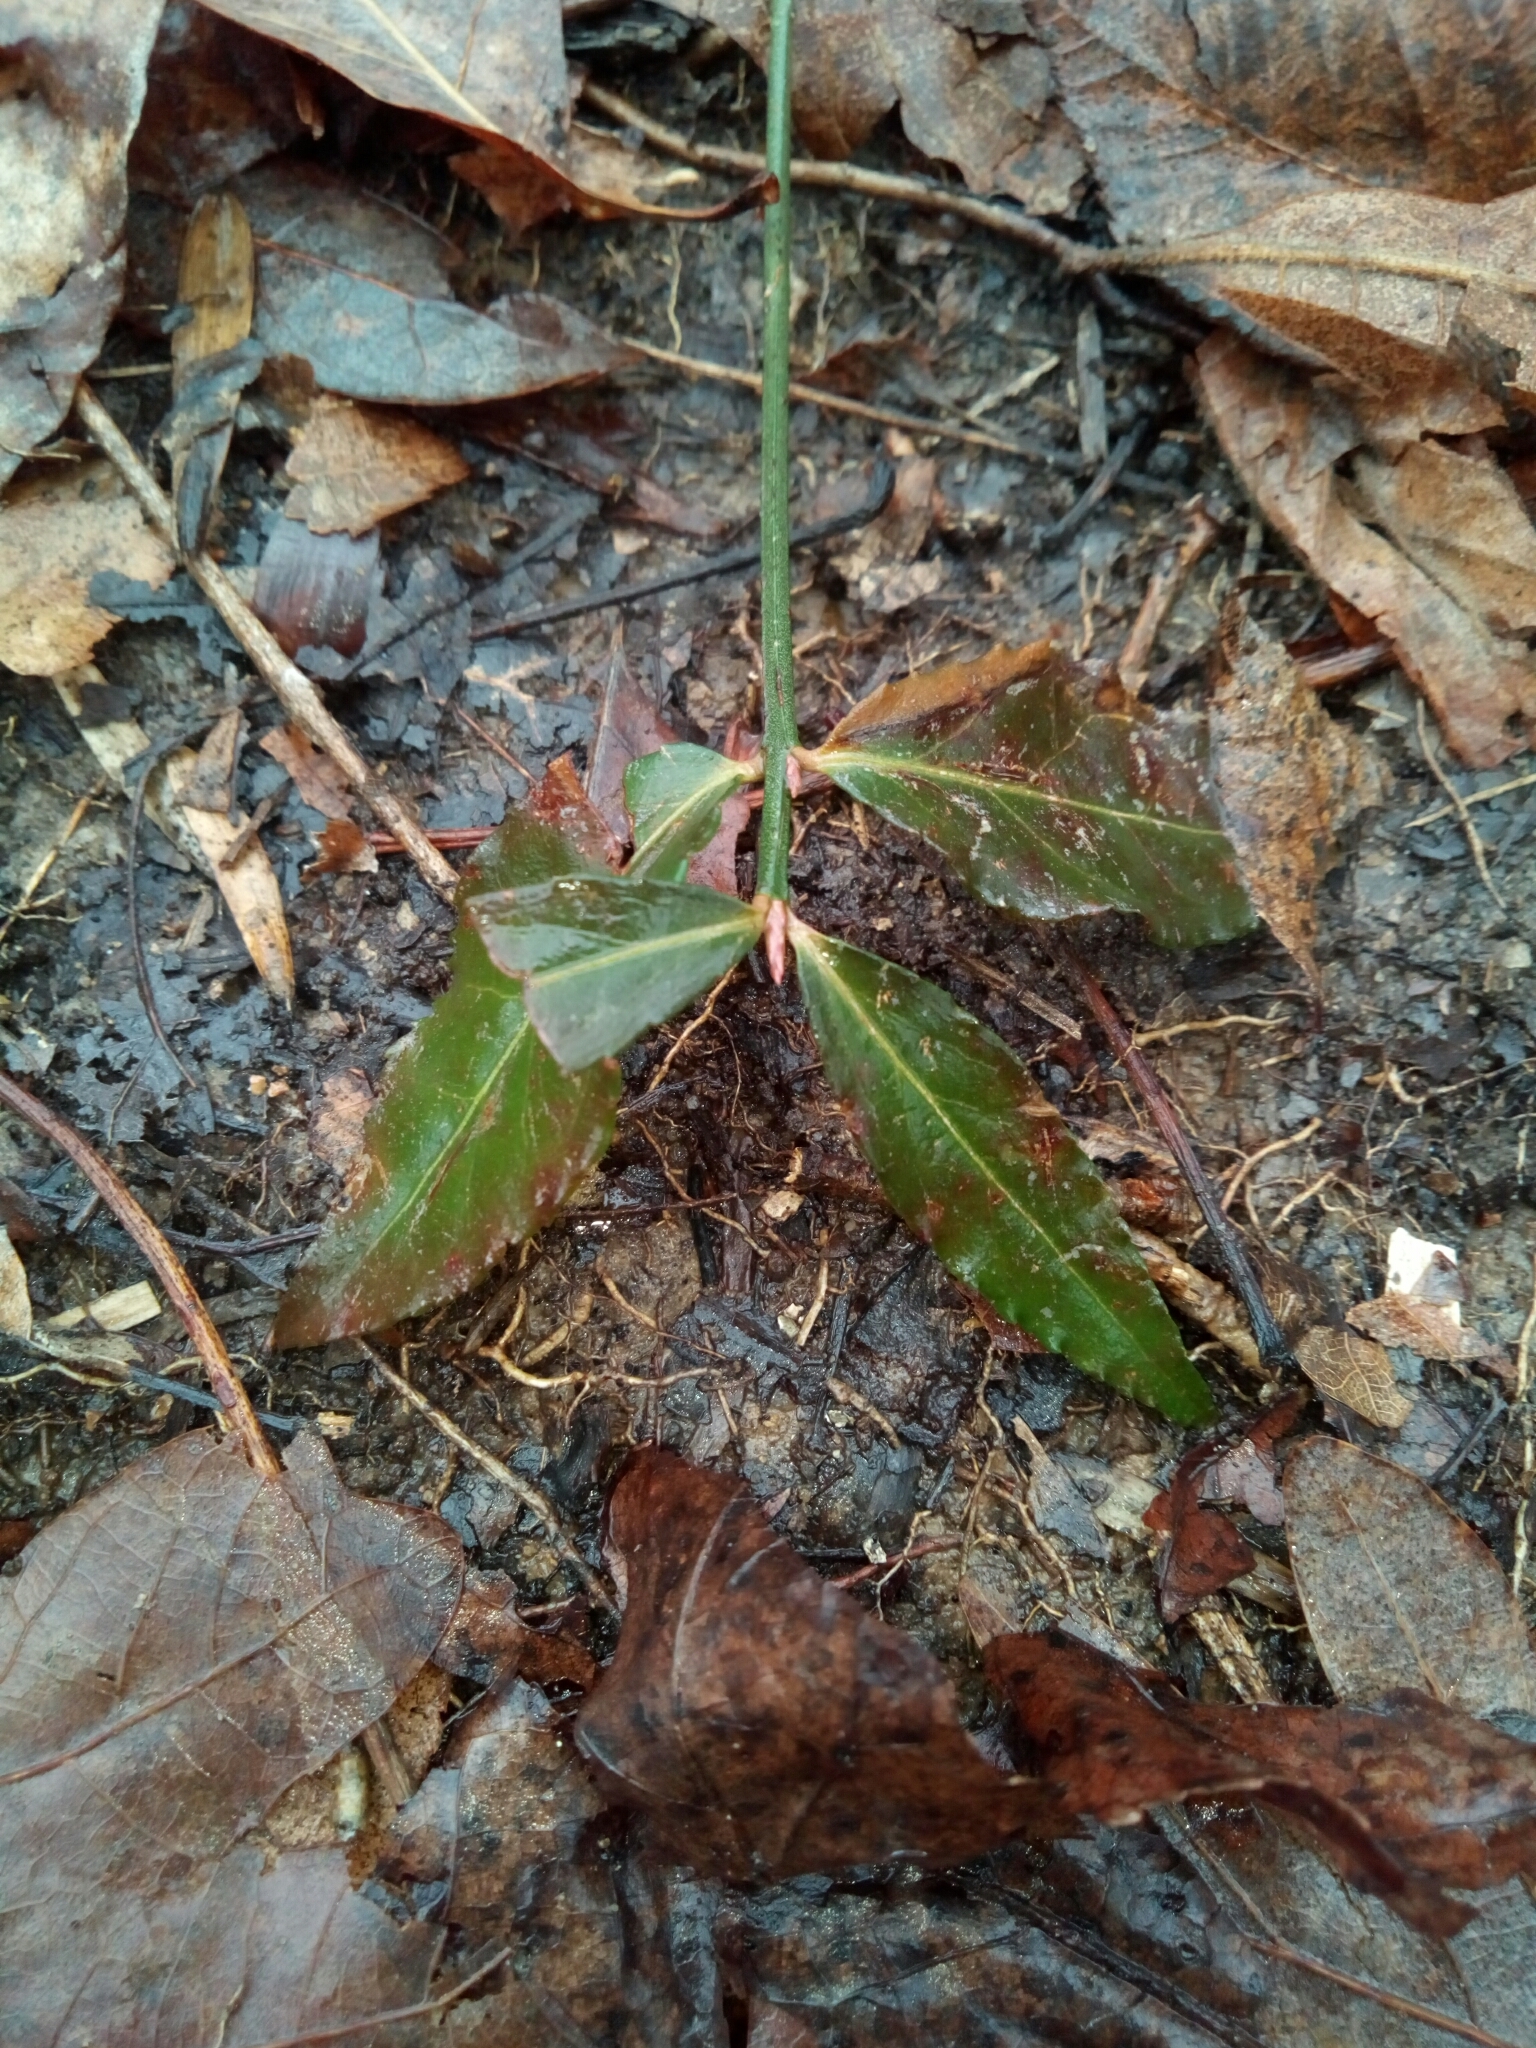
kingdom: Plantae
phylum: Tracheophyta
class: Magnoliopsida
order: Celastrales
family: Celastraceae
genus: Euonymus
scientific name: Euonymus americanus
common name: Bursting-heart
